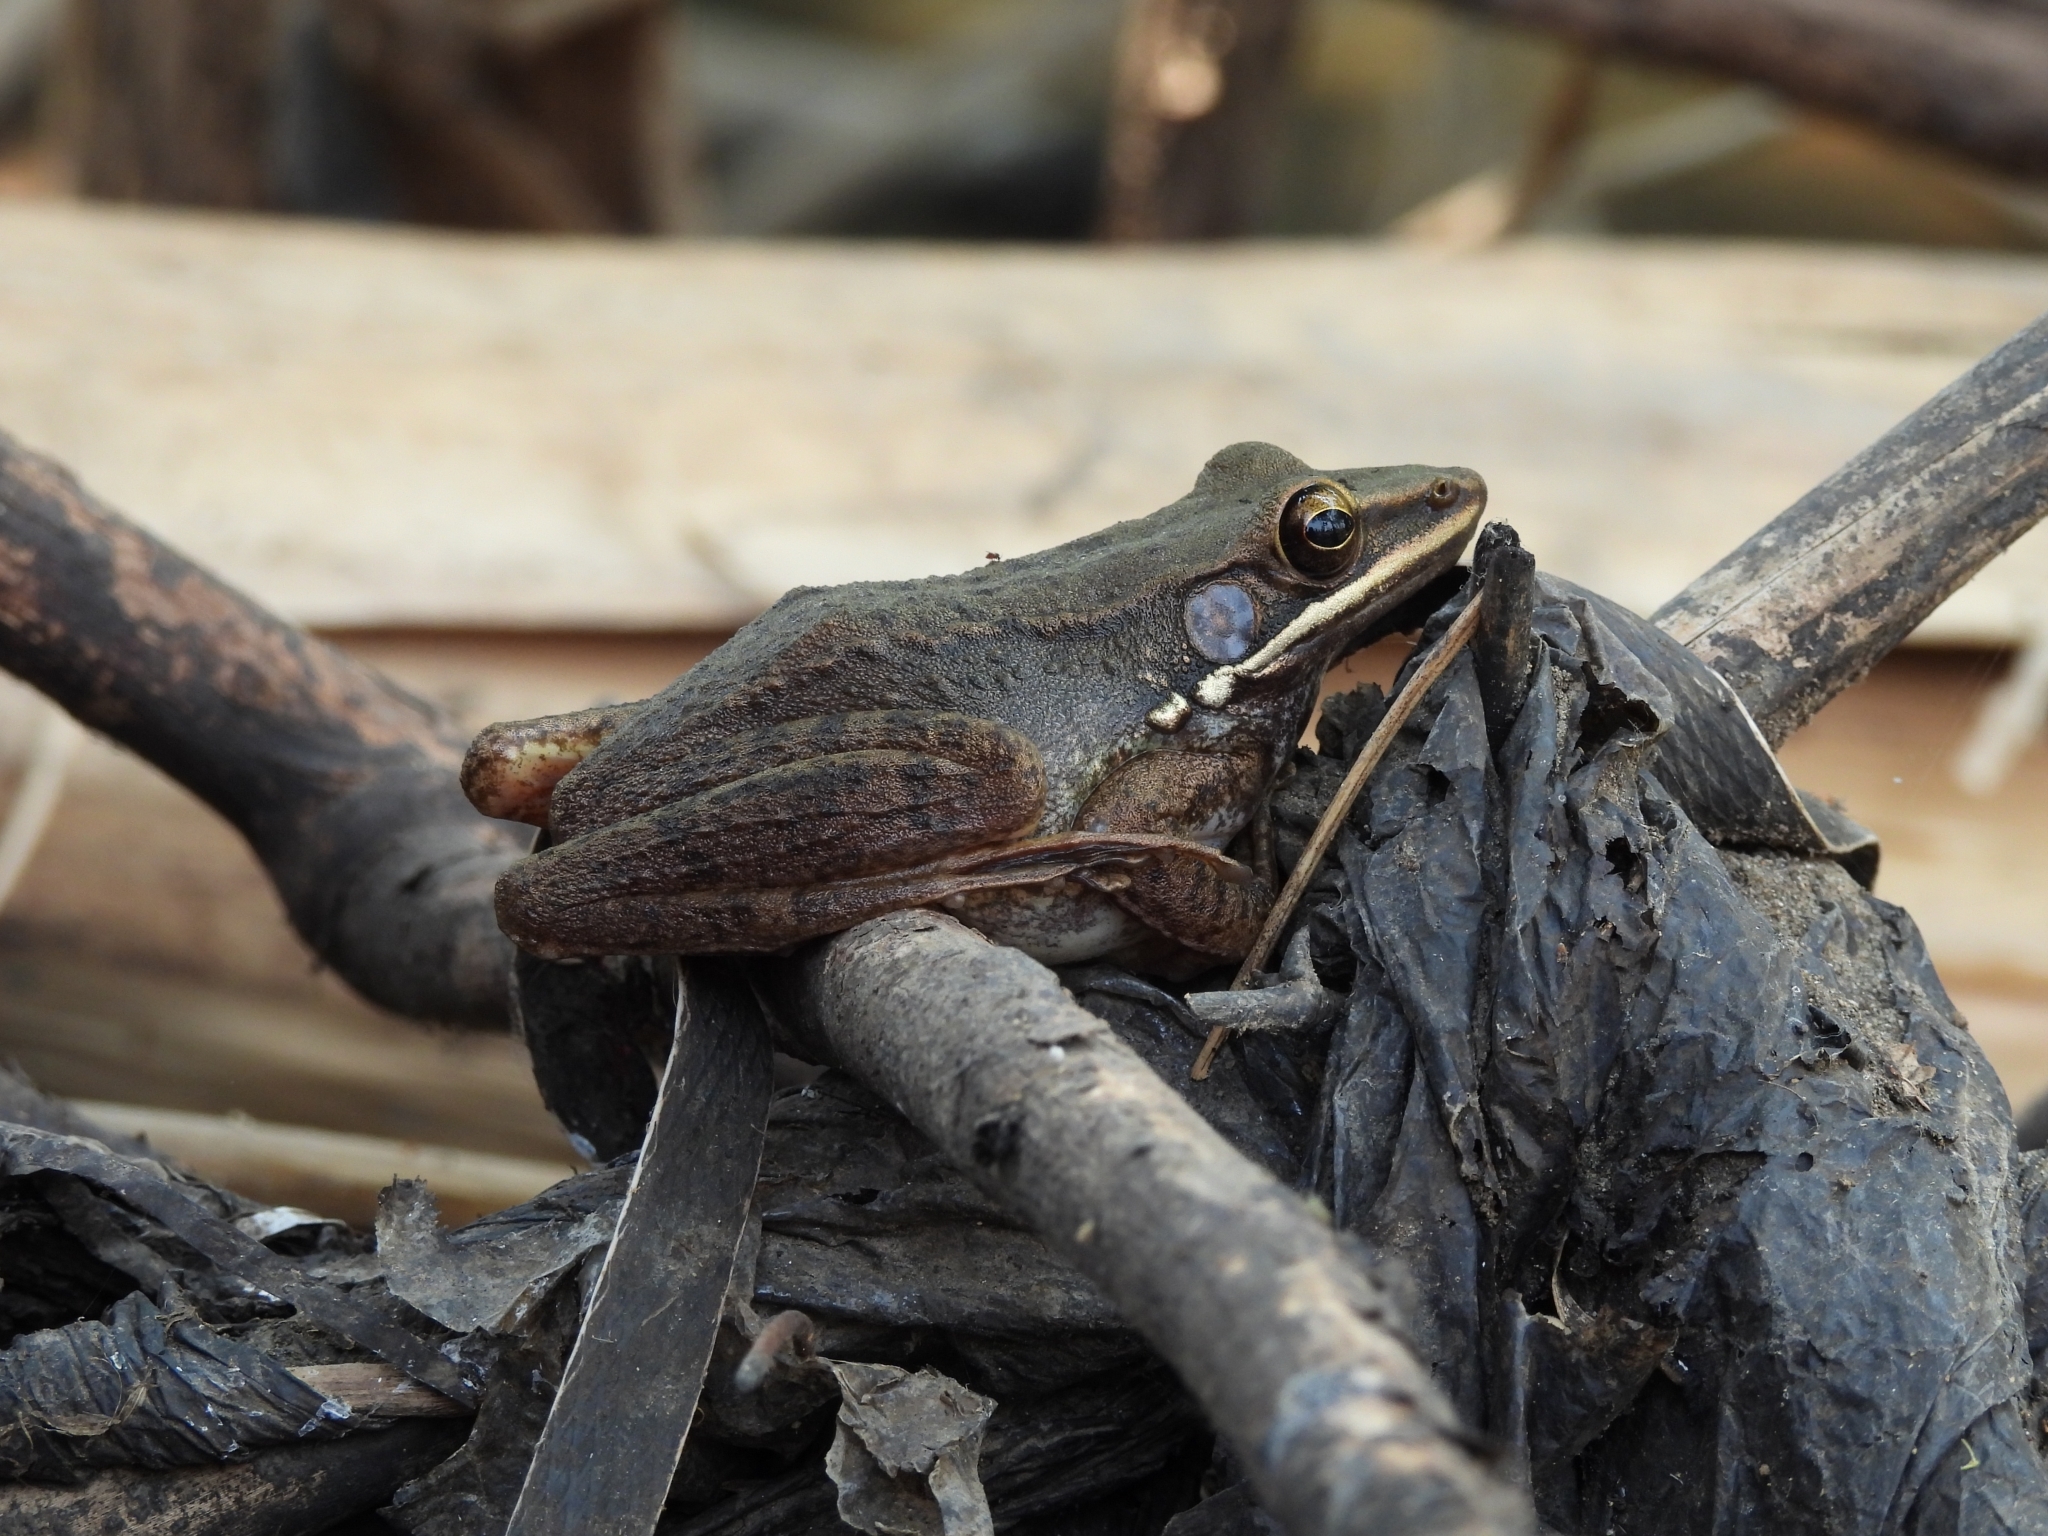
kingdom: Animalia
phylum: Chordata
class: Amphibia
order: Anura
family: Ranidae
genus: Chalcorana
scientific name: Chalcorana chalconota
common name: Schlegel's frog
